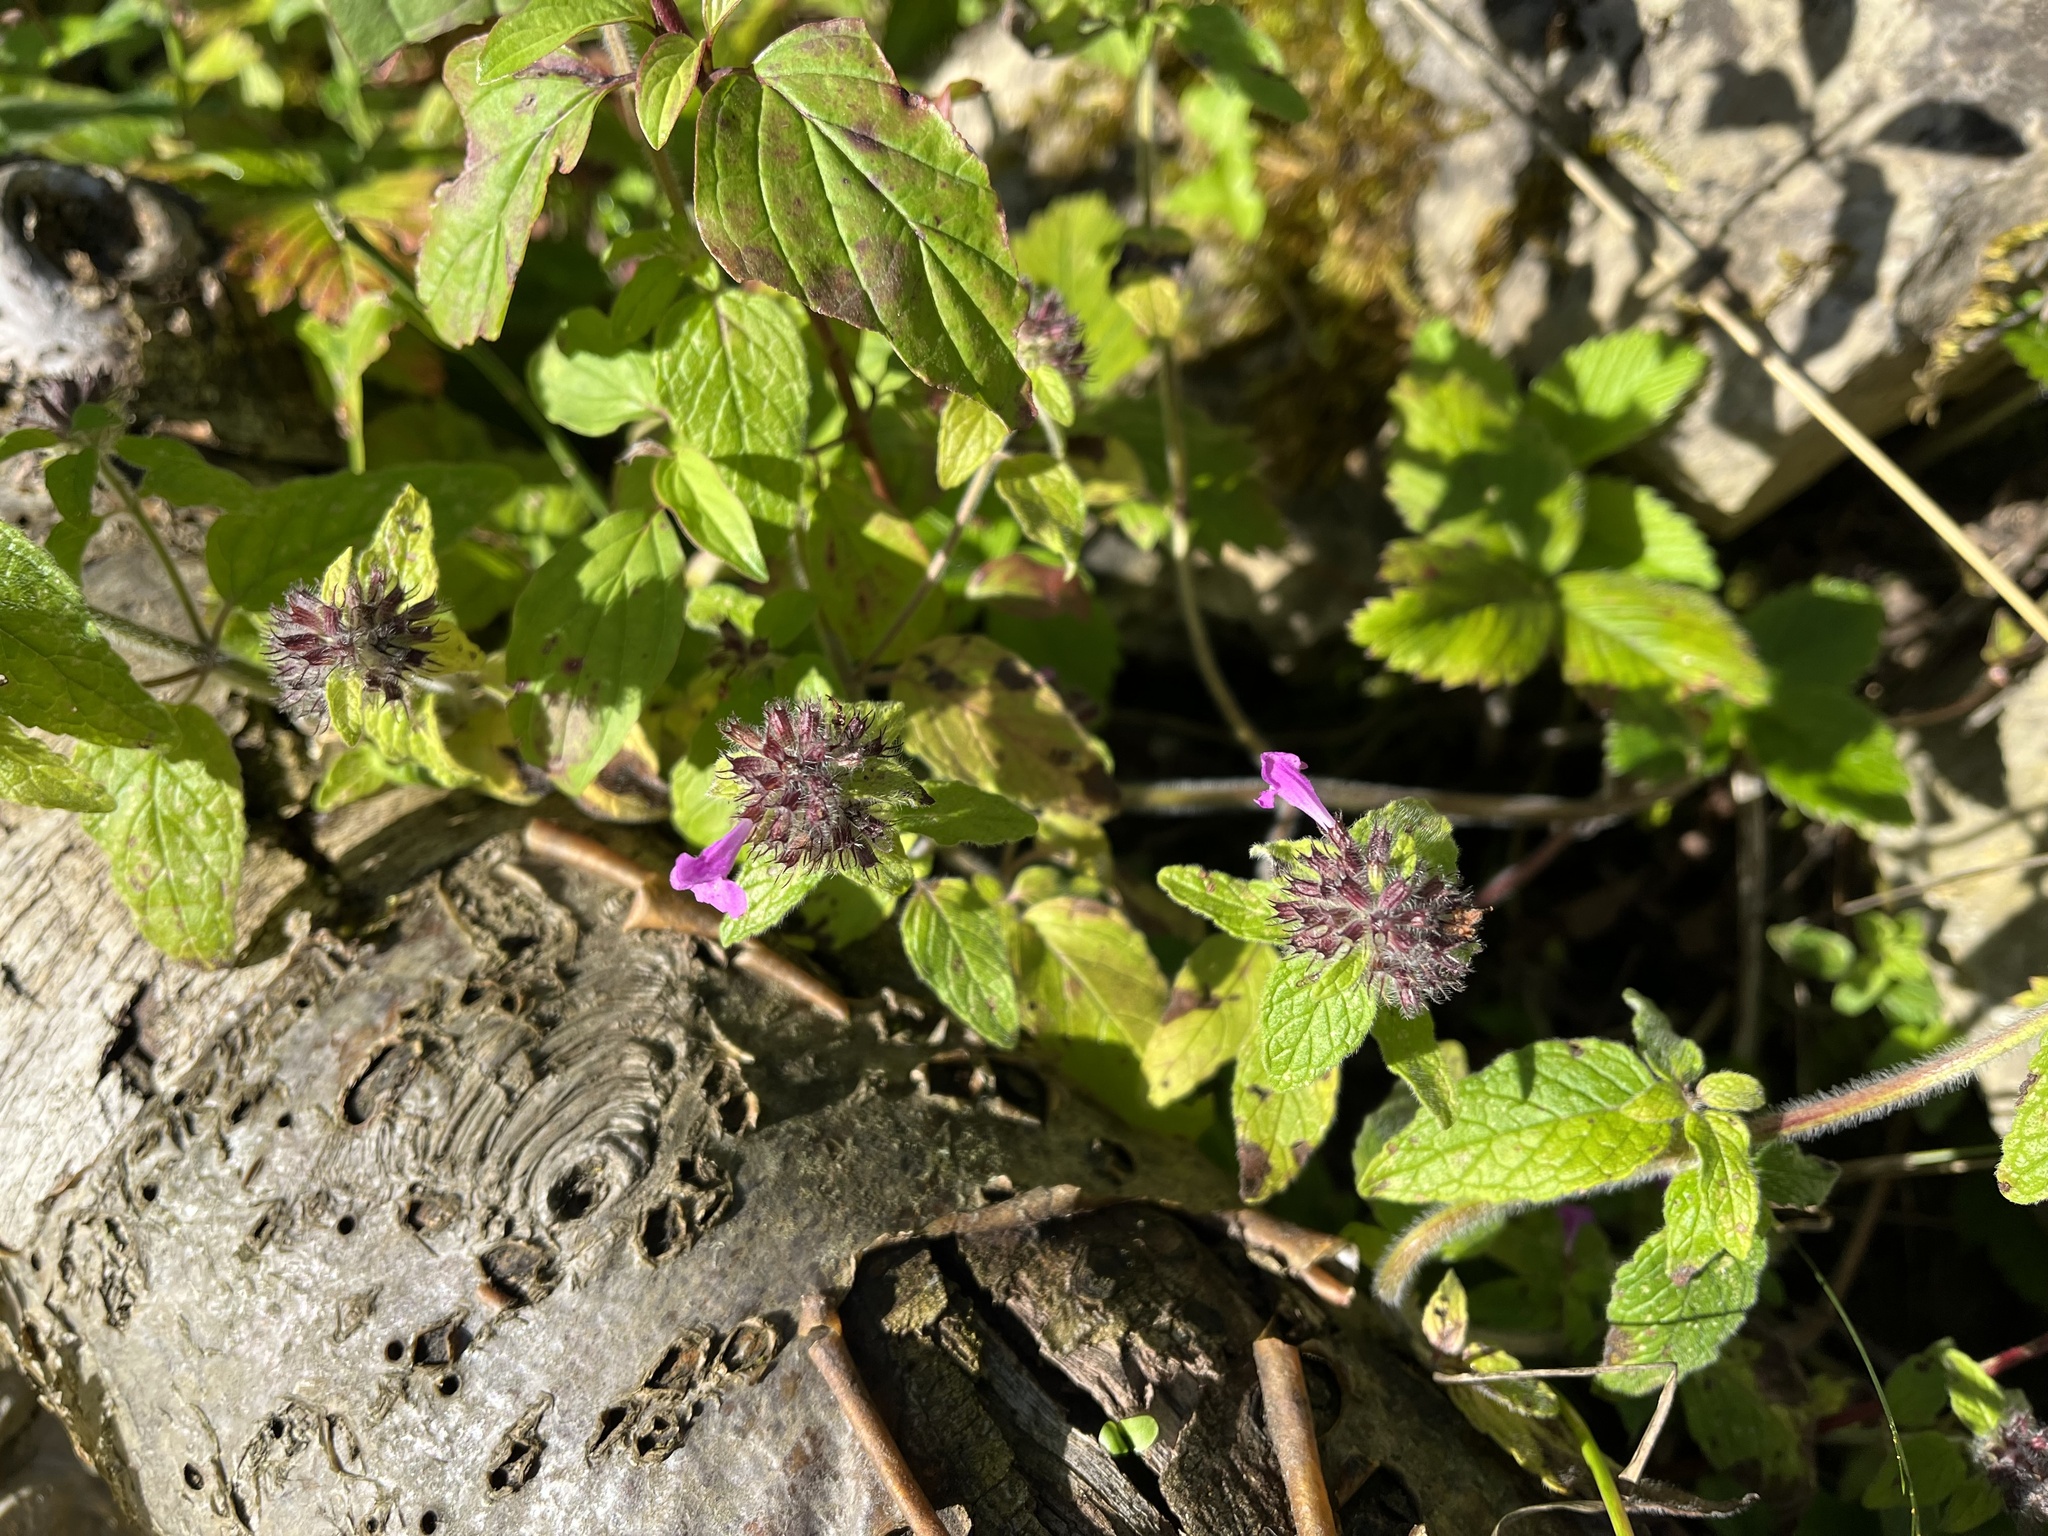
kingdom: Plantae
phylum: Tracheophyta
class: Magnoliopsida
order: Lamiales
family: Lamiaceae
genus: Clinopodium
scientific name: Clinopodium vulgare
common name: Wild basil
